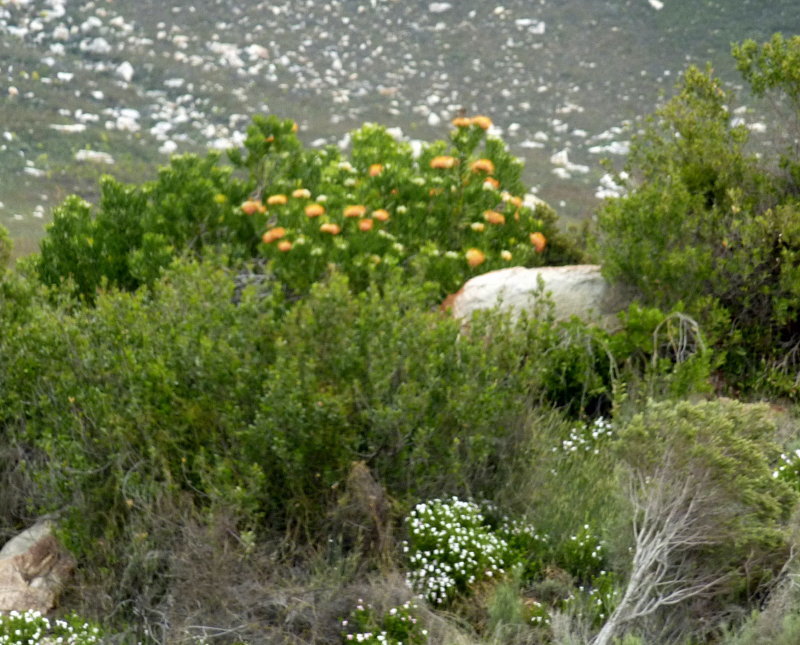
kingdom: Plantae
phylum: Tracheophyta
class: Magnoliopsida
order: Proteales
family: Proteaceae
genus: Leucospermum
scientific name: Leucospermum erubescens
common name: Oudtshoorn pincushion
